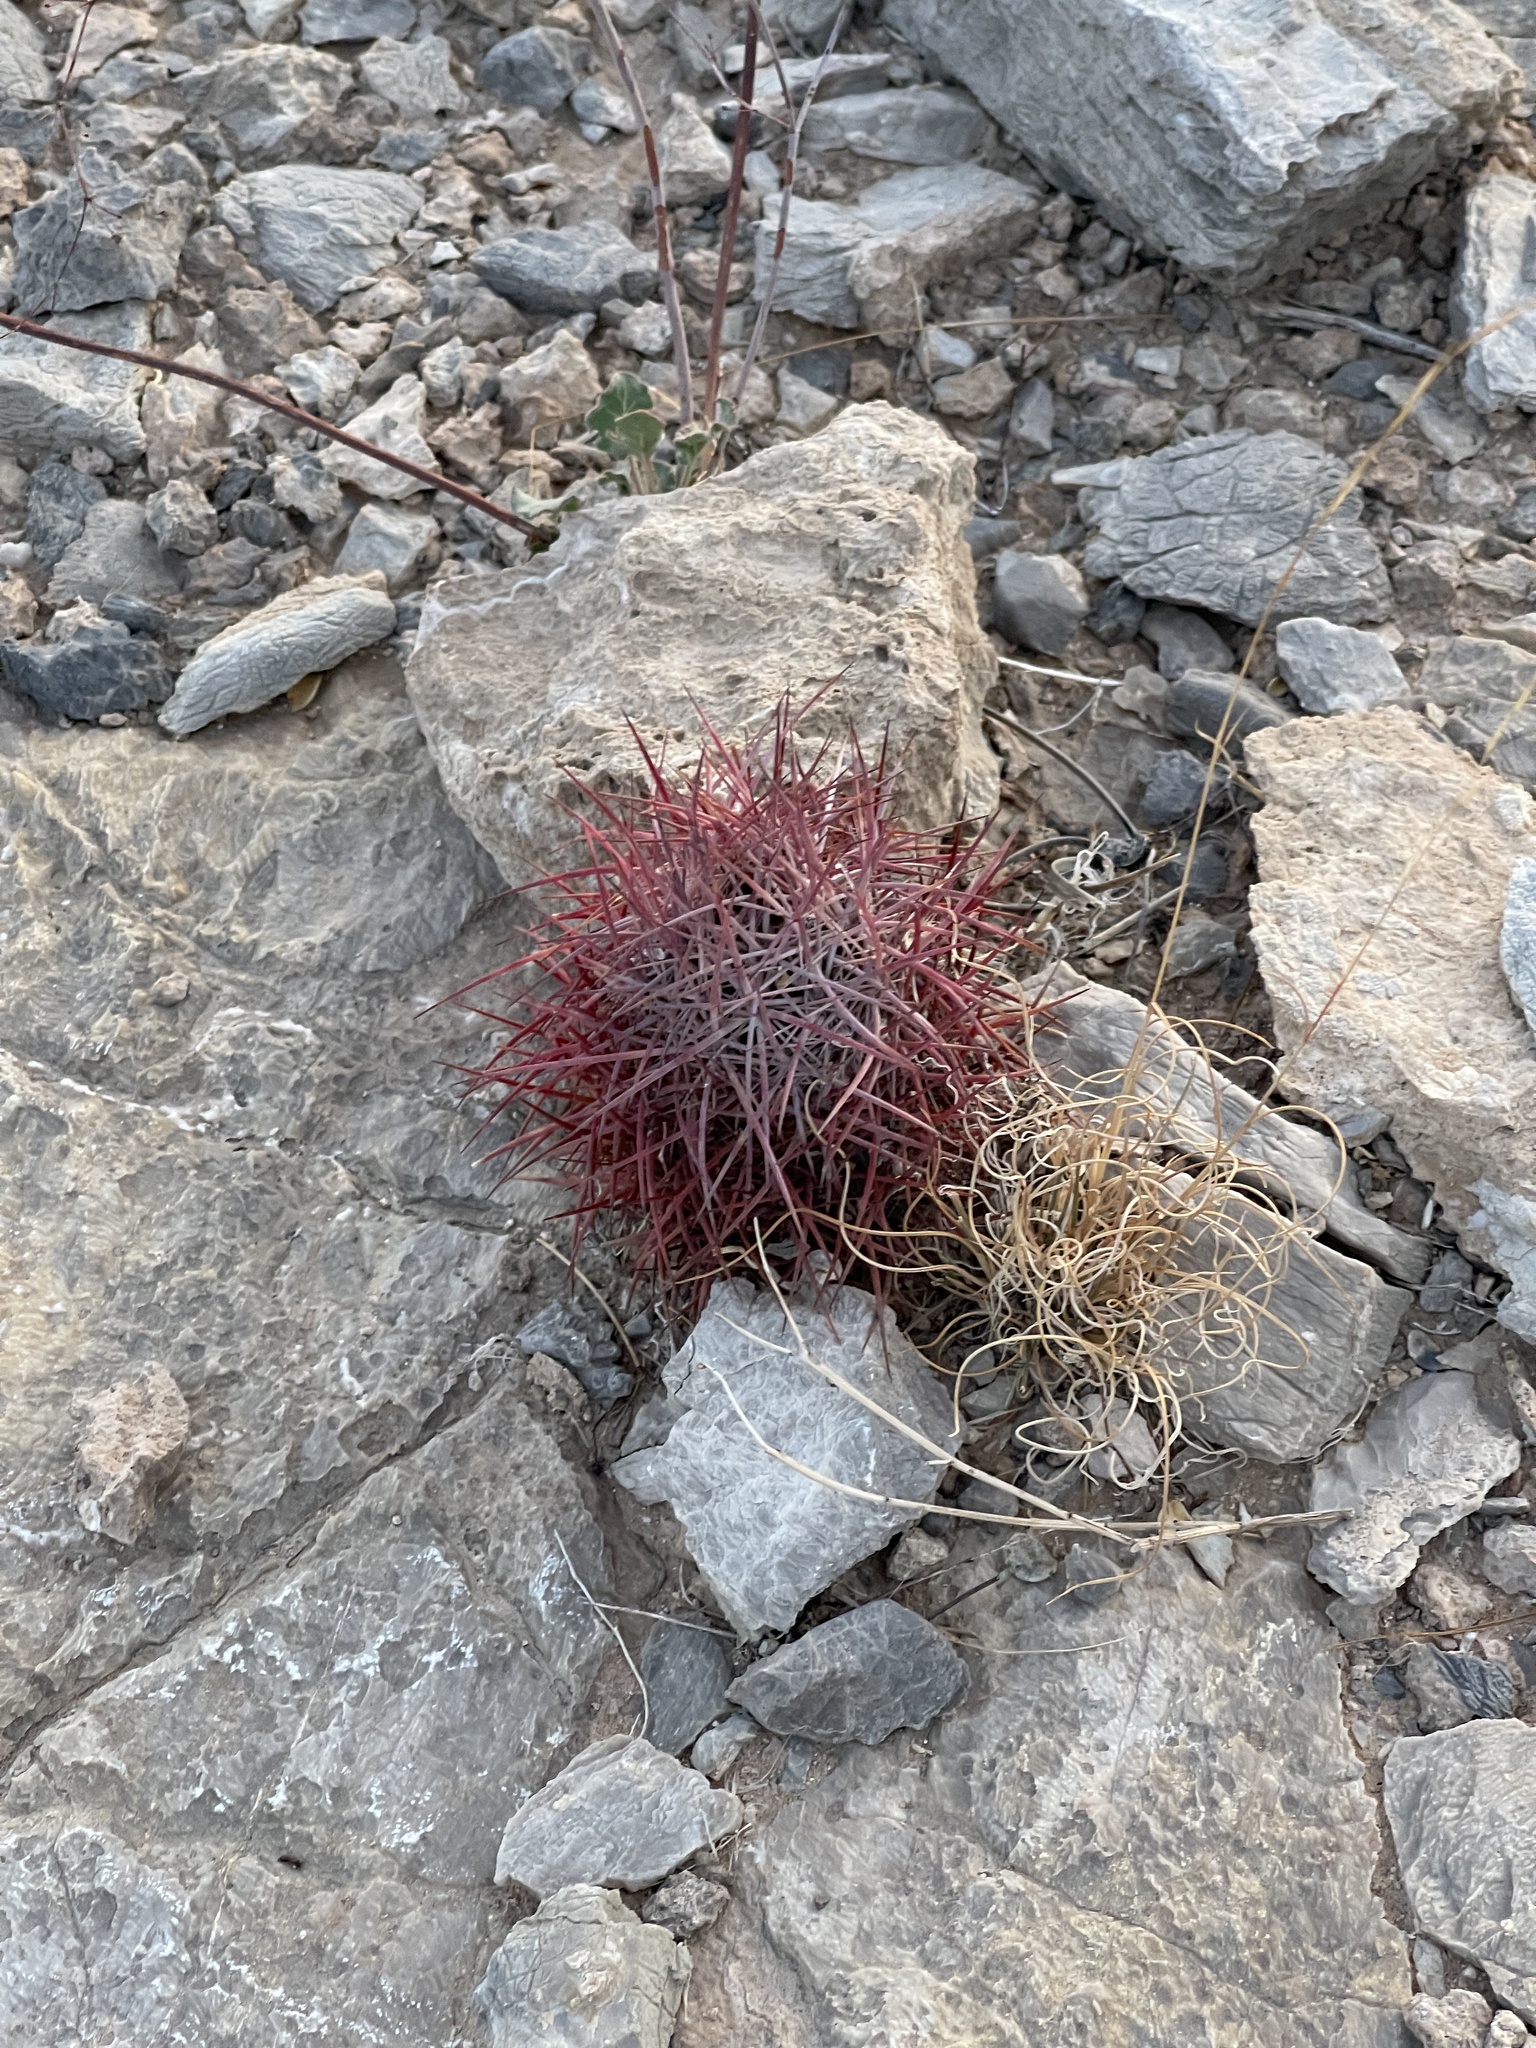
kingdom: Plantae
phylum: Tracheophyta
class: Magnoliopsida
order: Caryophyllales
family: Cactaceae
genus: Sclerocactus
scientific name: Sclerocactus johnsonii
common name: Eight-spine fishhook cactus
